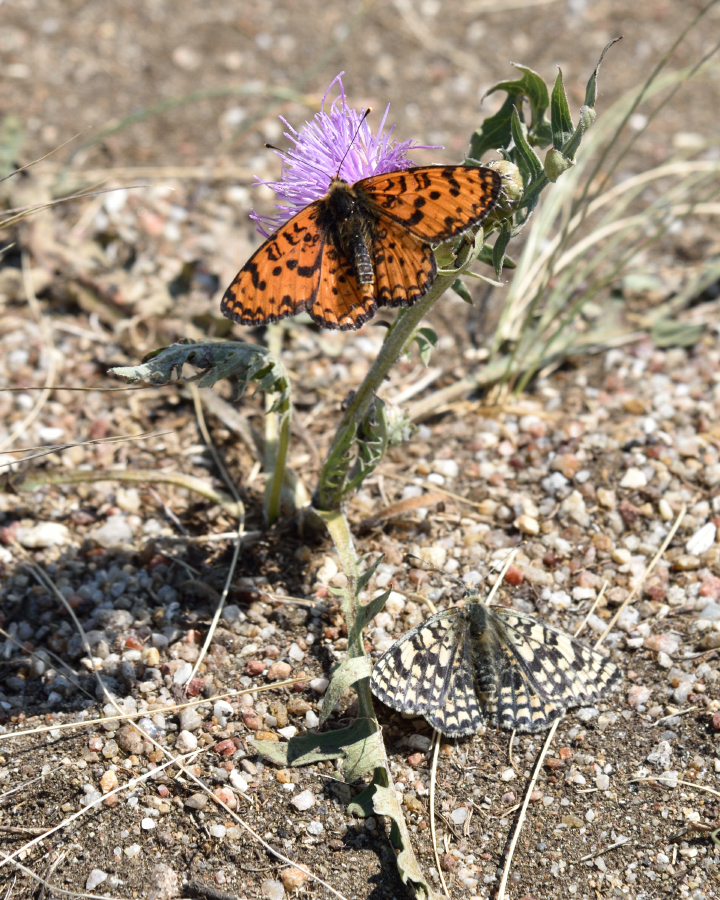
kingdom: Animalia
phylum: Arthropoda
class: Insecta
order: Lepidoptera
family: Nymphalidae
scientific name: Nymphalidae
